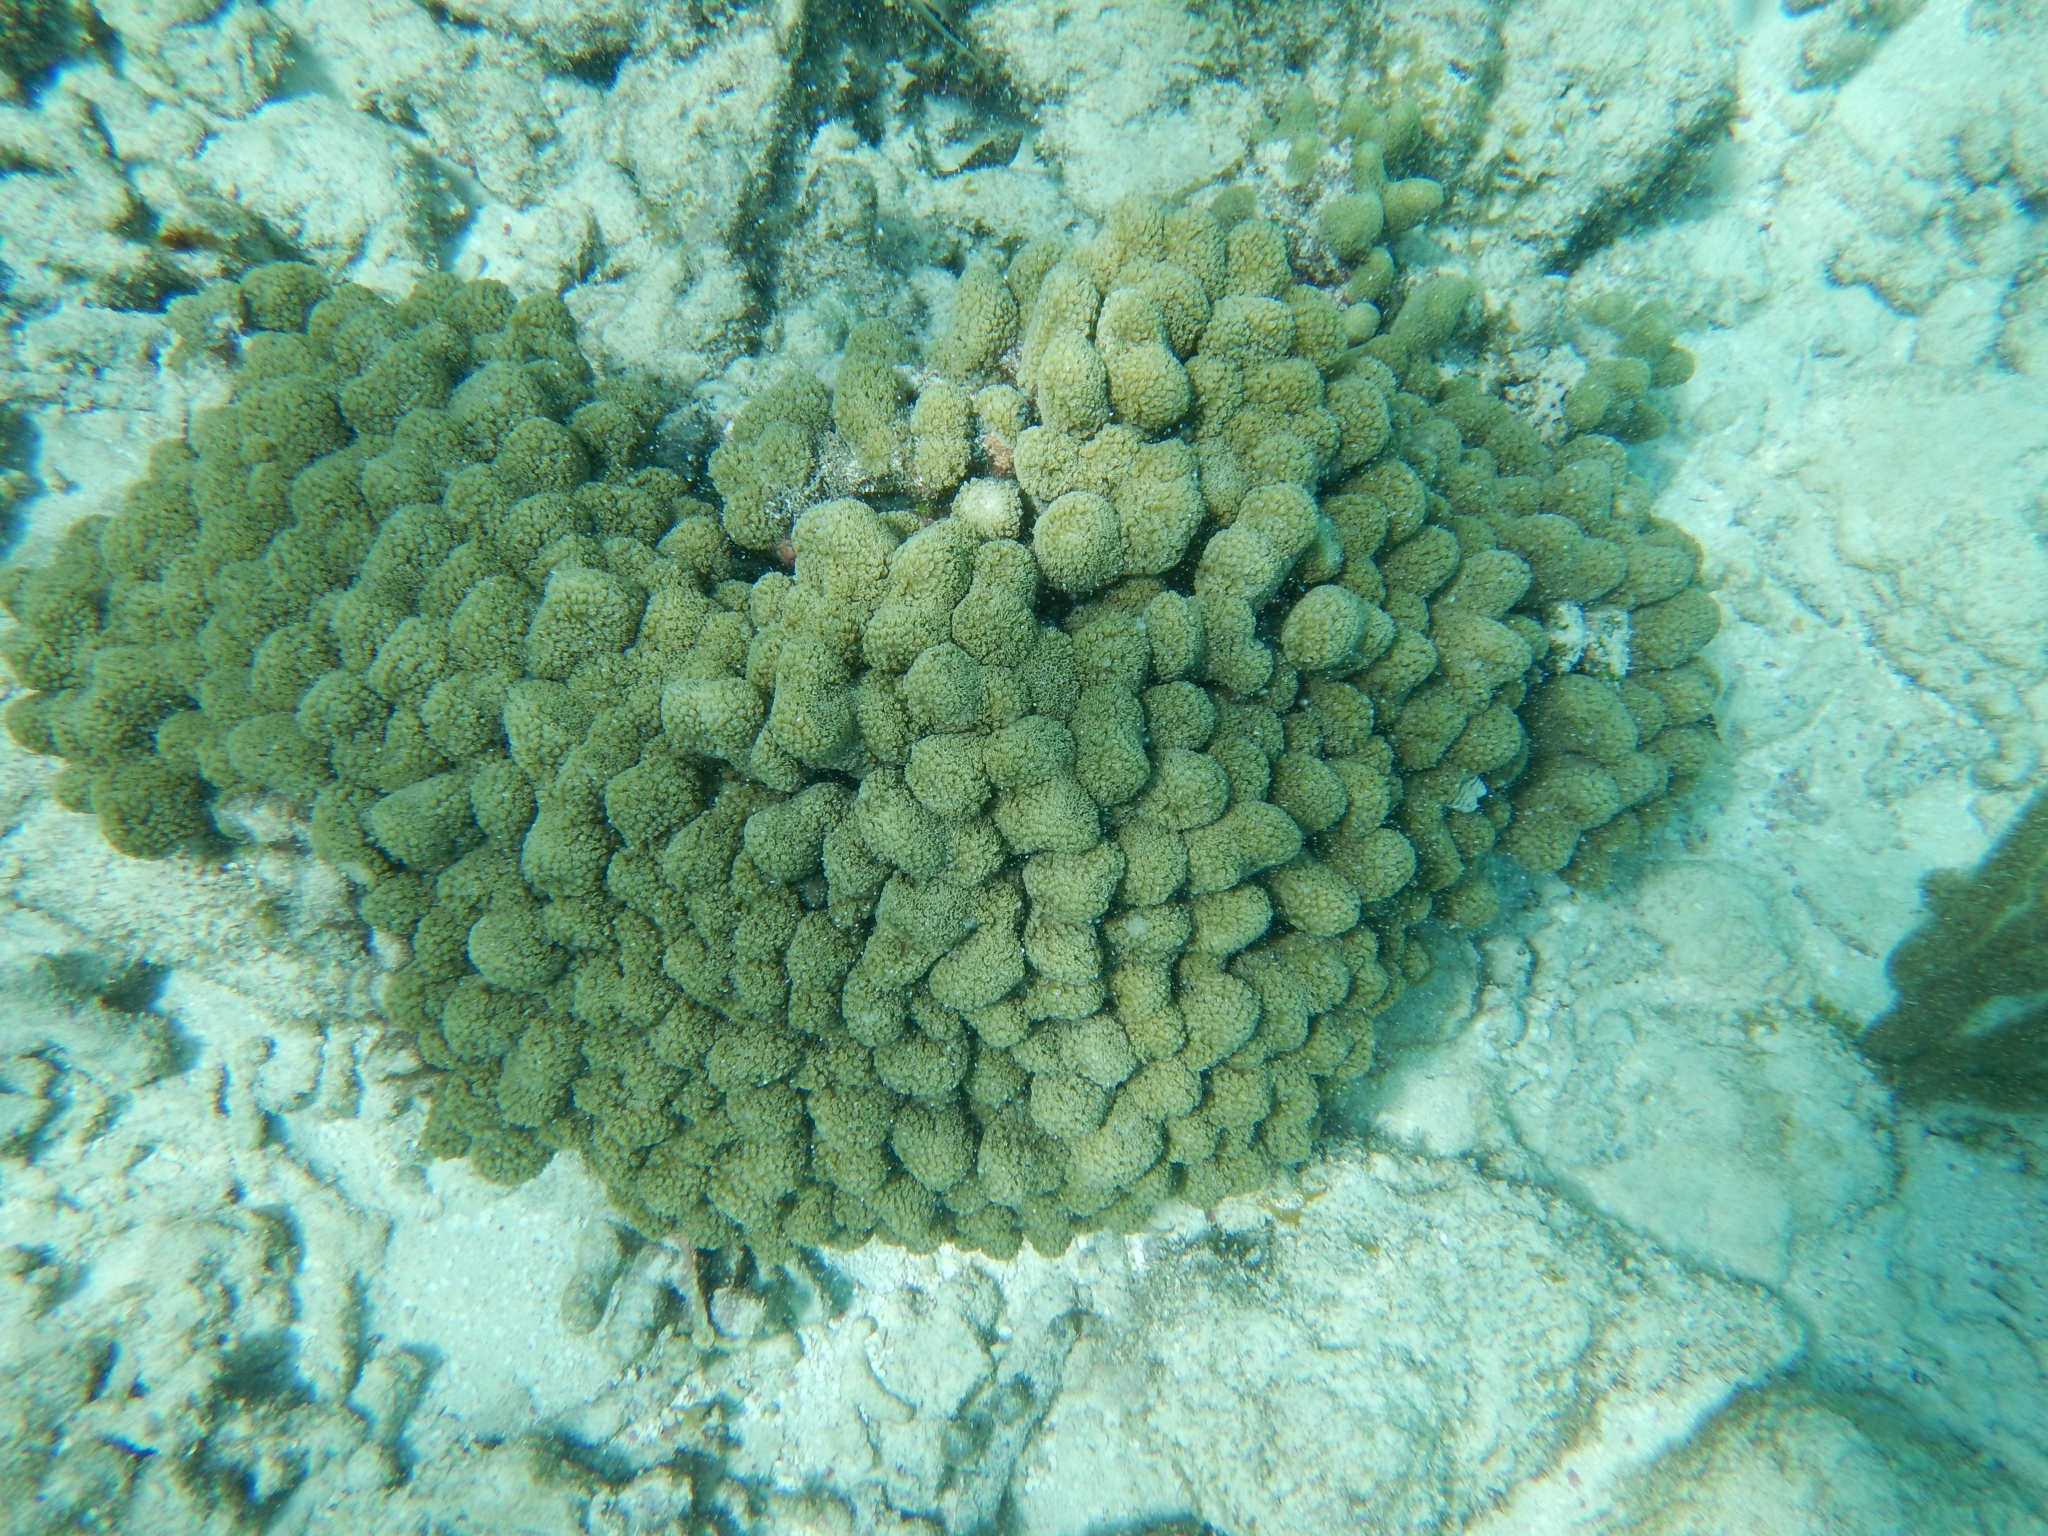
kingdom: Animalia
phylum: Cnidaria
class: Anthozoa
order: Scleractinia
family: Poritidae
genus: Porites
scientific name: Porites porites
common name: Finger coral
